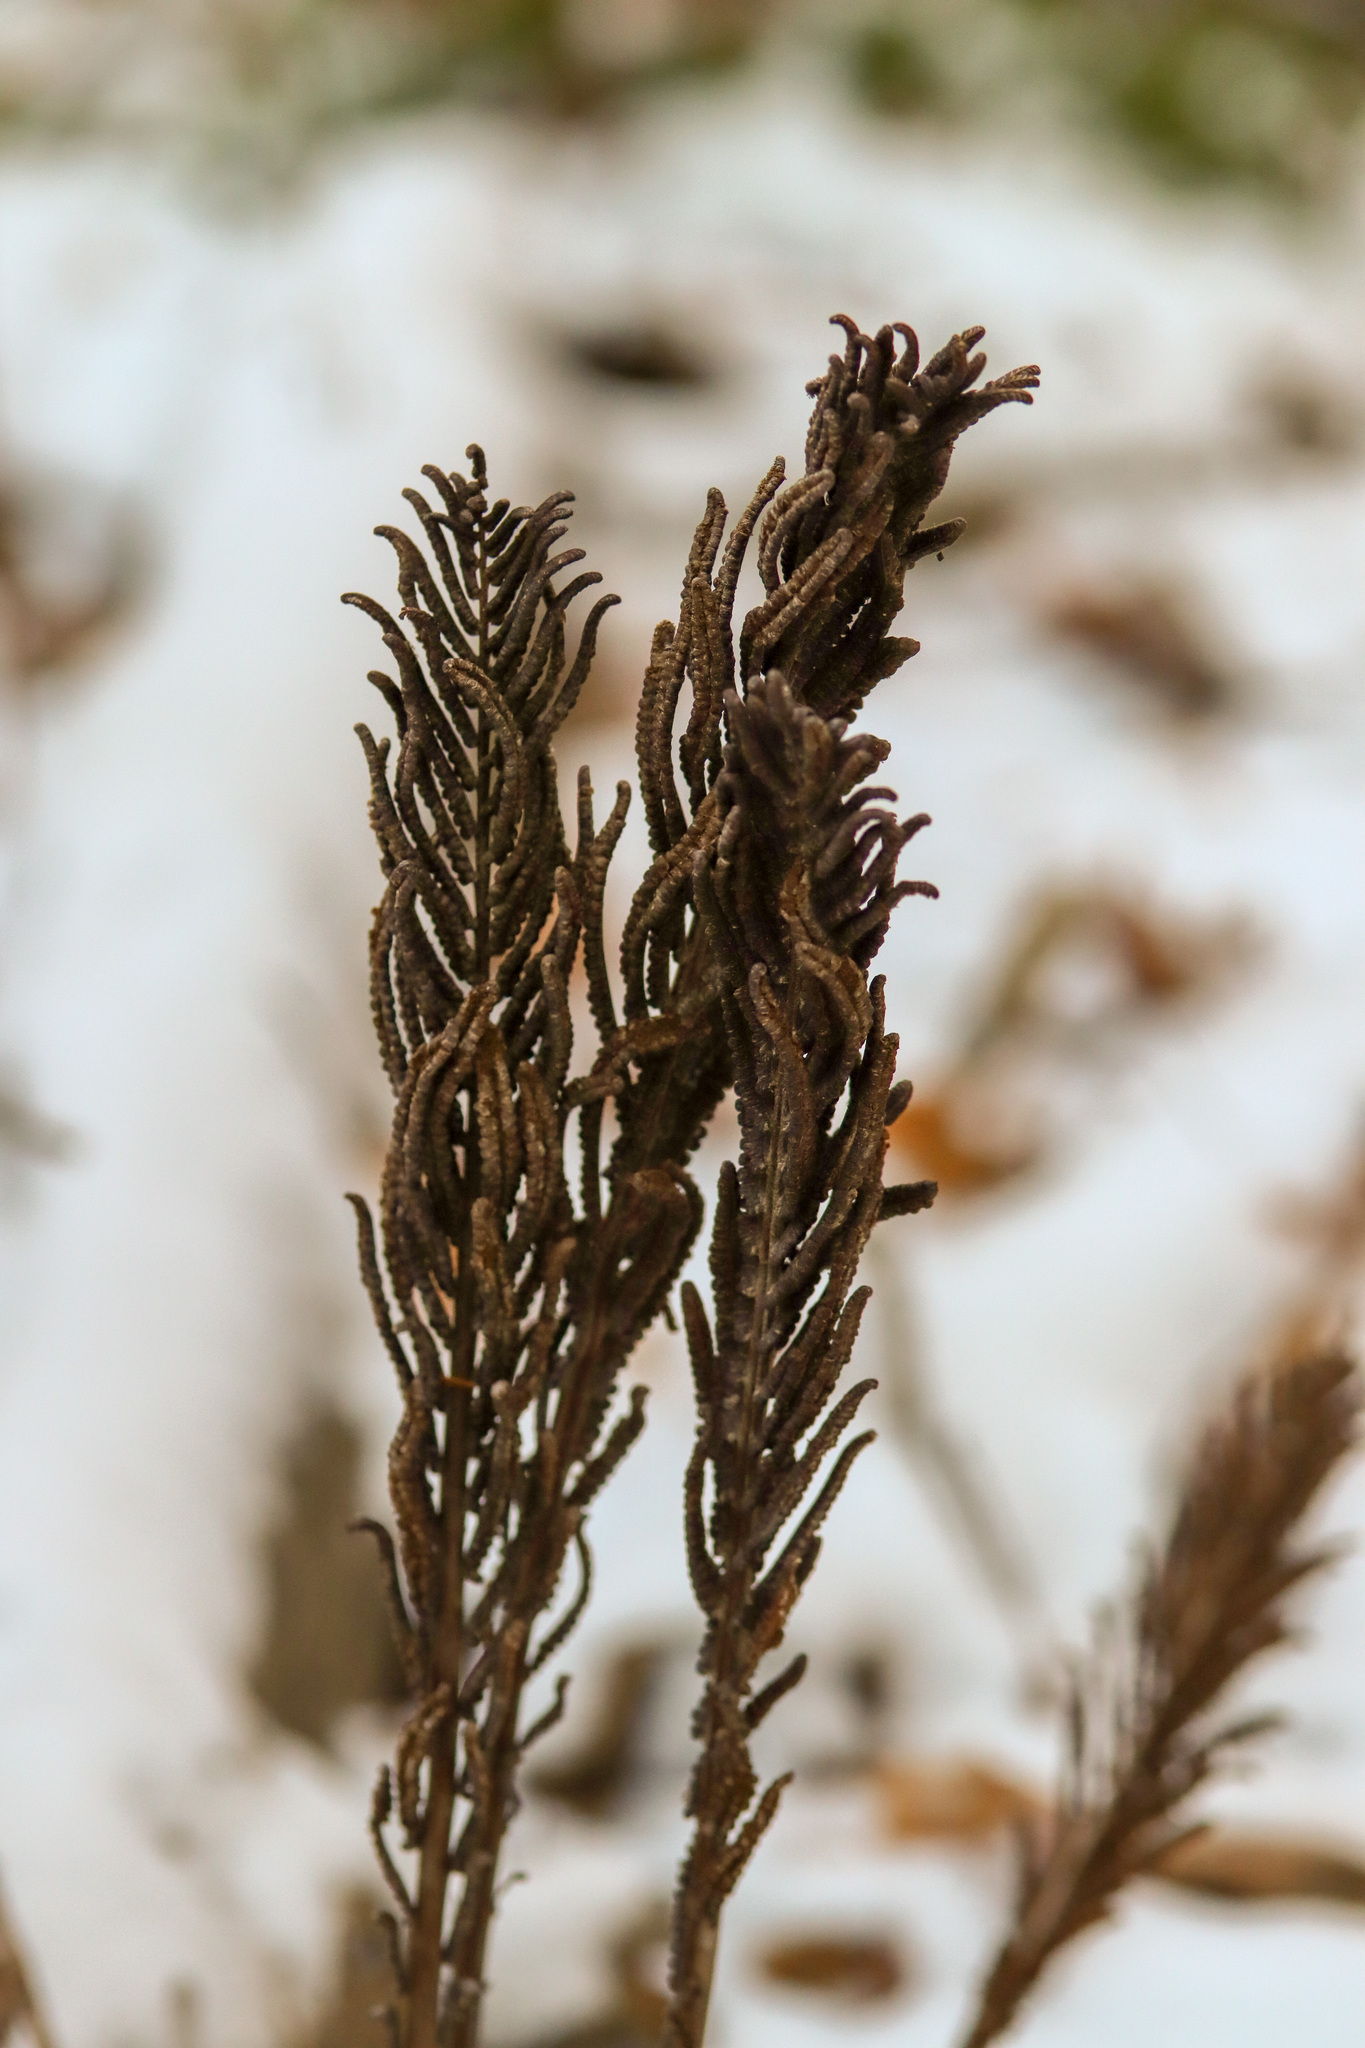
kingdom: Plantae
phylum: Tracheophyta
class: Polypodiopsida
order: Polypodiales
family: Onocleaceae
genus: Matteuccia
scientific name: Matteuccia struthiopteris
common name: Ostrich fern
